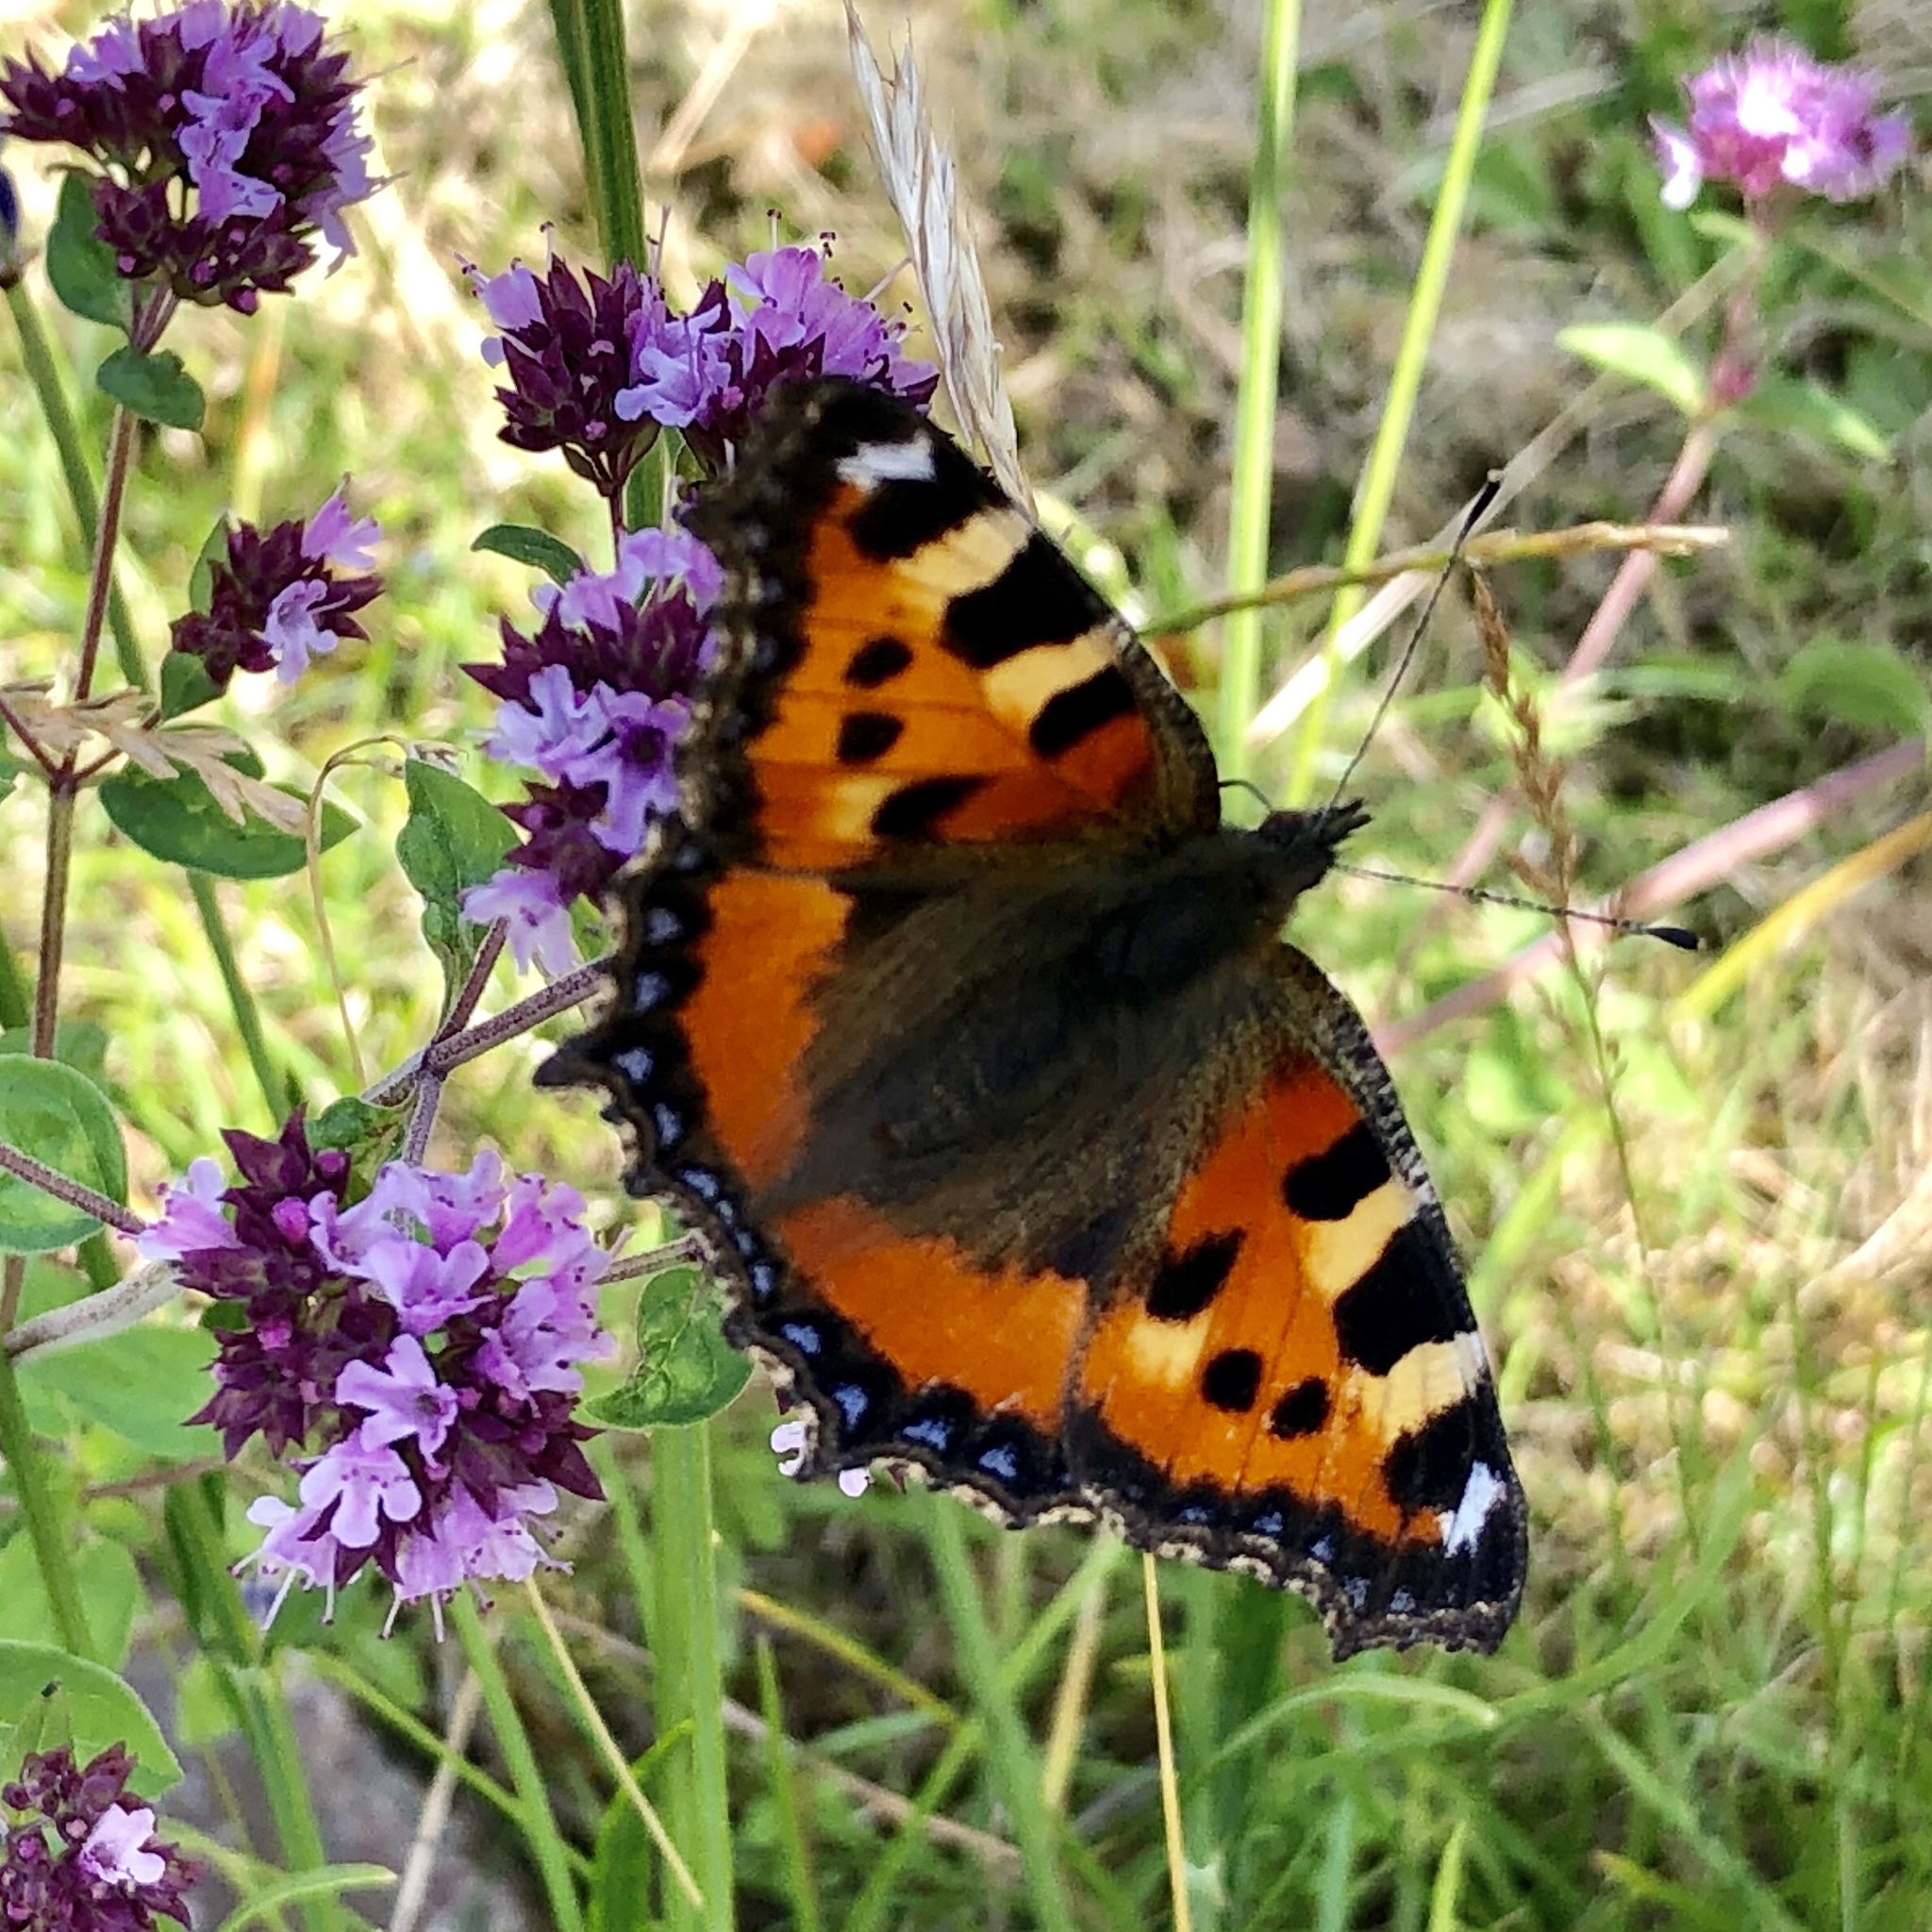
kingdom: Animalia
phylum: Arthropoda
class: Insecta
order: Lepidoptera
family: Nymphalidae
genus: Aglais
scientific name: Aglais urticae
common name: Small tortoiseshell
